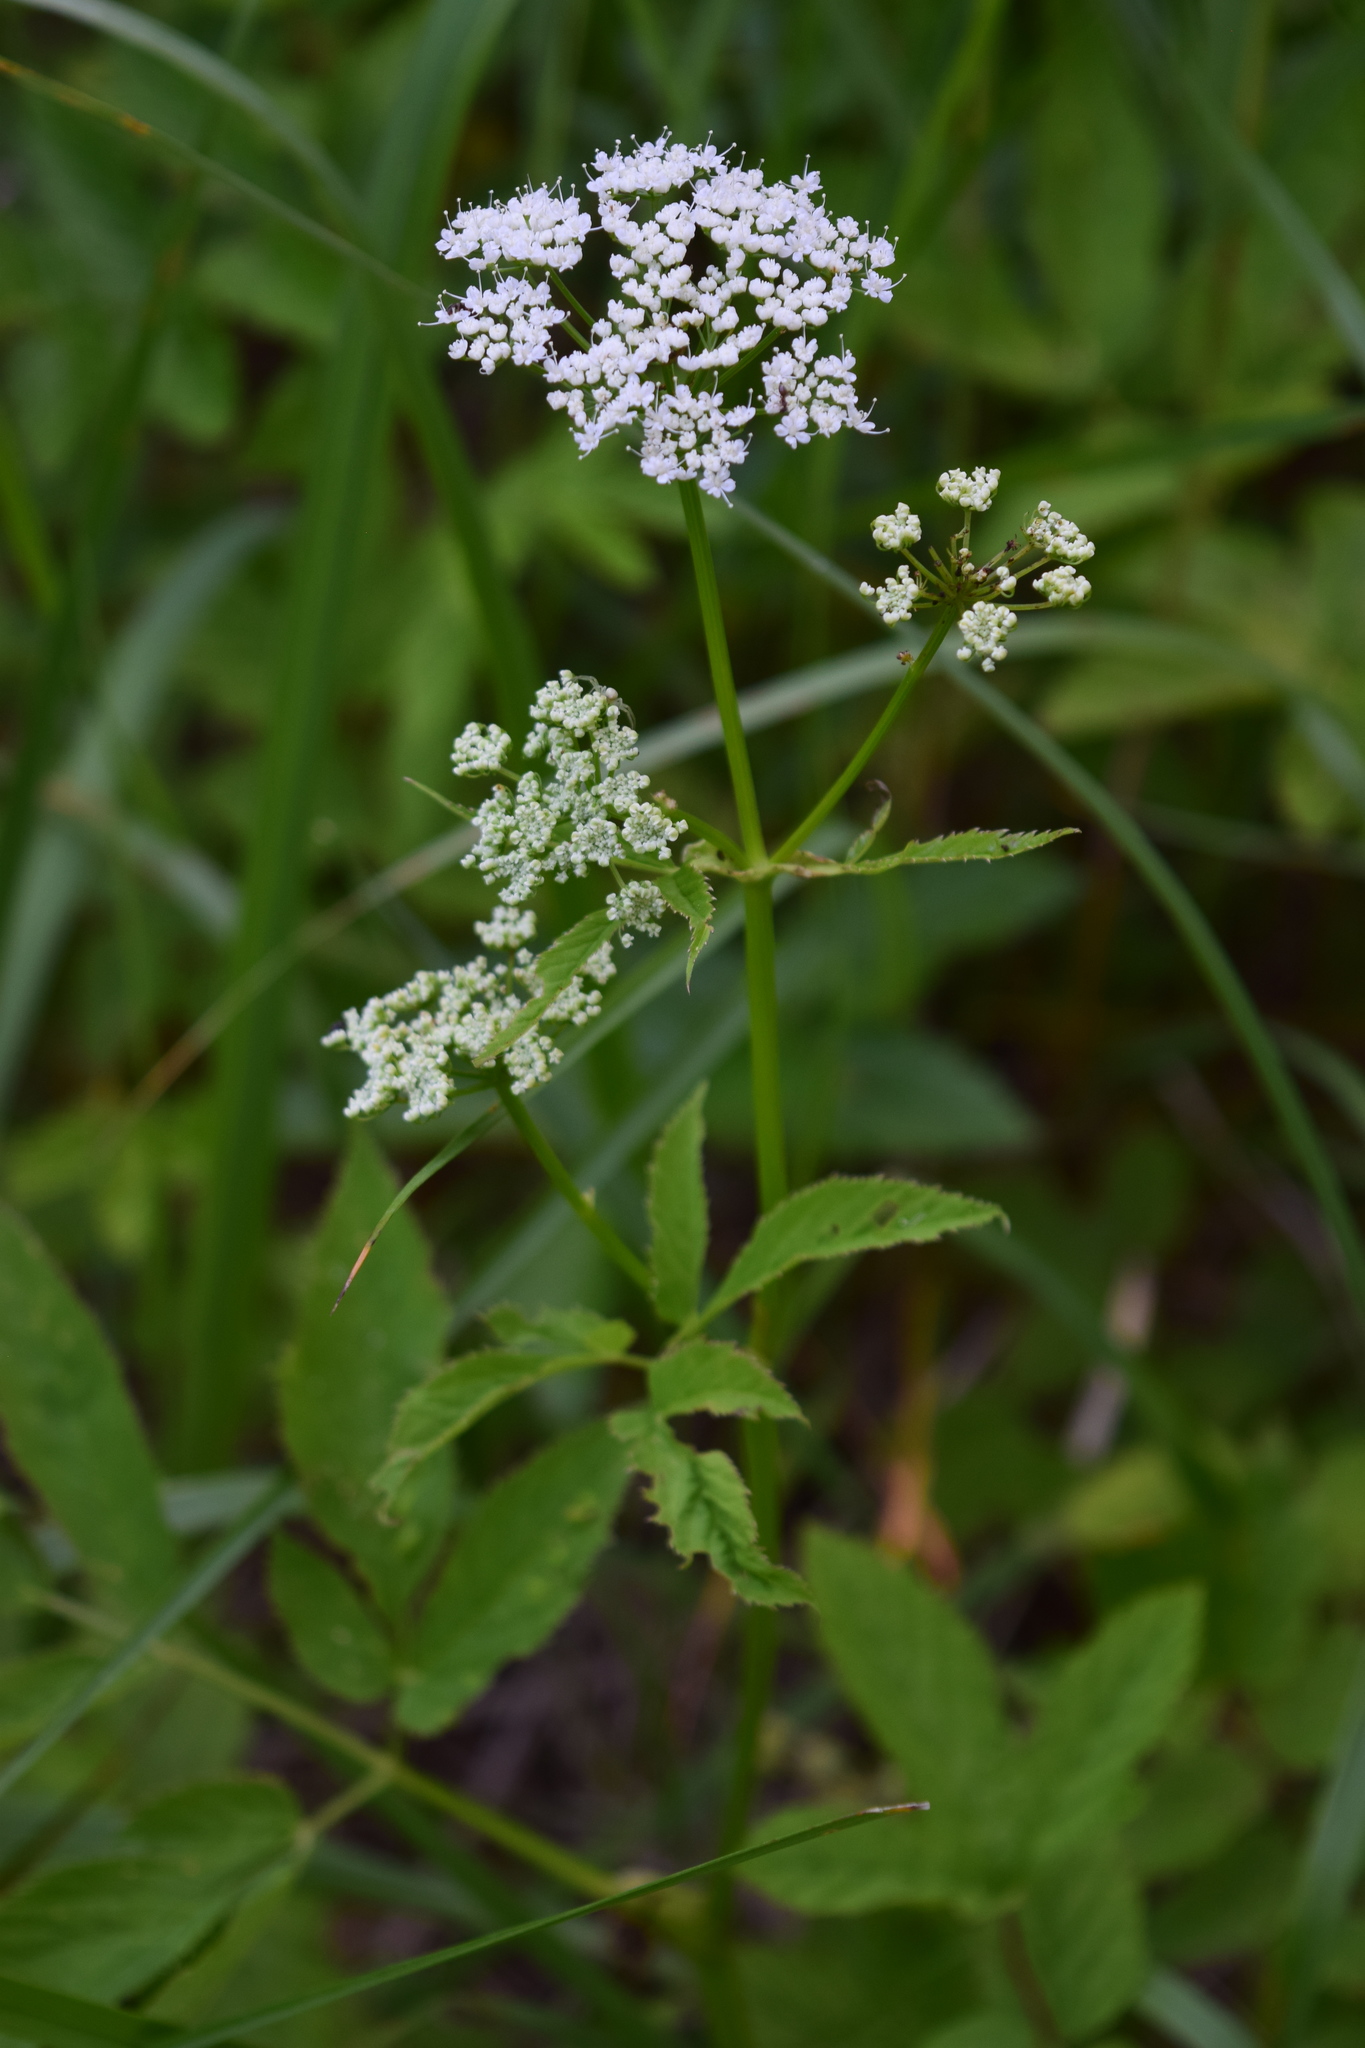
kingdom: Plantae
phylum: Tracheophyta
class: Magnoliopsida
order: Apiales
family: Apiaceae
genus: Aegopodium
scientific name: Aegopodium podagraria
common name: Ground-elder
